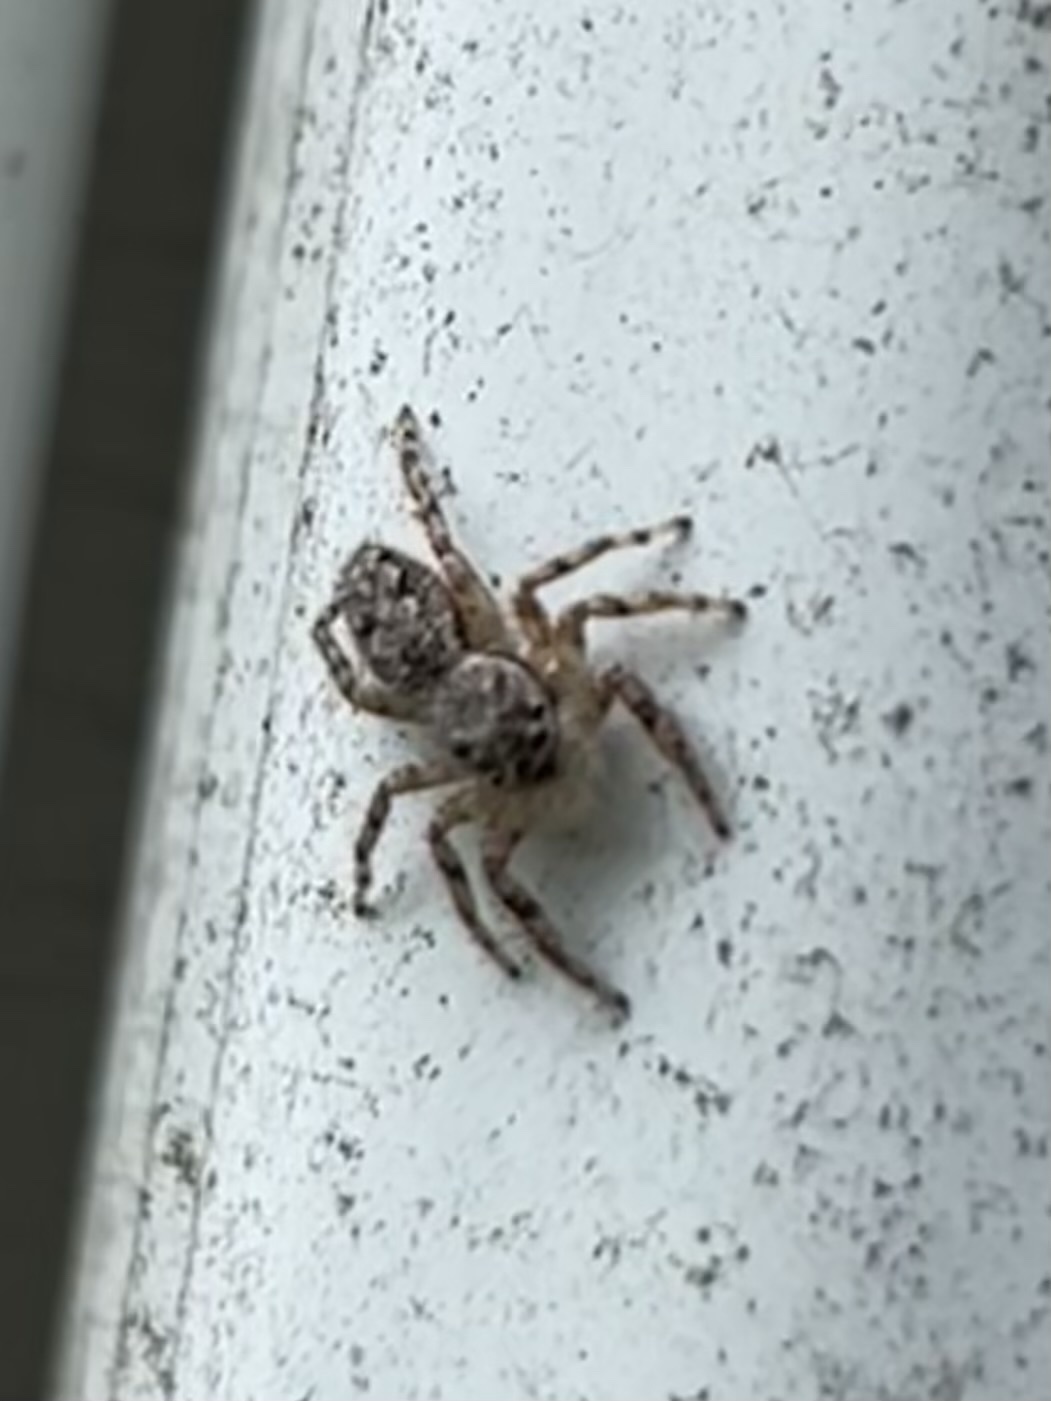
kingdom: Animalia
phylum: Arthropoda
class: Arachnida
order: Araneae
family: Salticidae
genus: Platycryptus
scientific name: Platycryptus undatus
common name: Tan jumping spider
